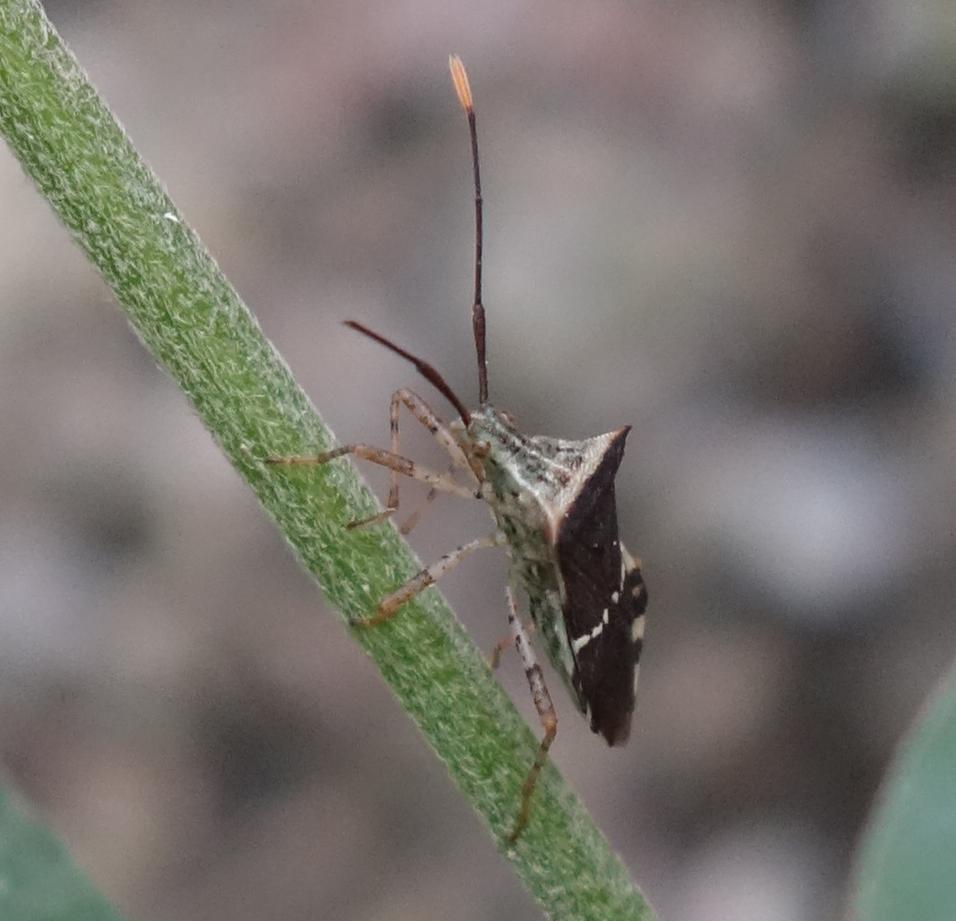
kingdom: Animalia
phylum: Arthropoda
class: Insecta
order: Hemiptera
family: Coreidae
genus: Cletomorpha
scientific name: Cletomorpha simulans
